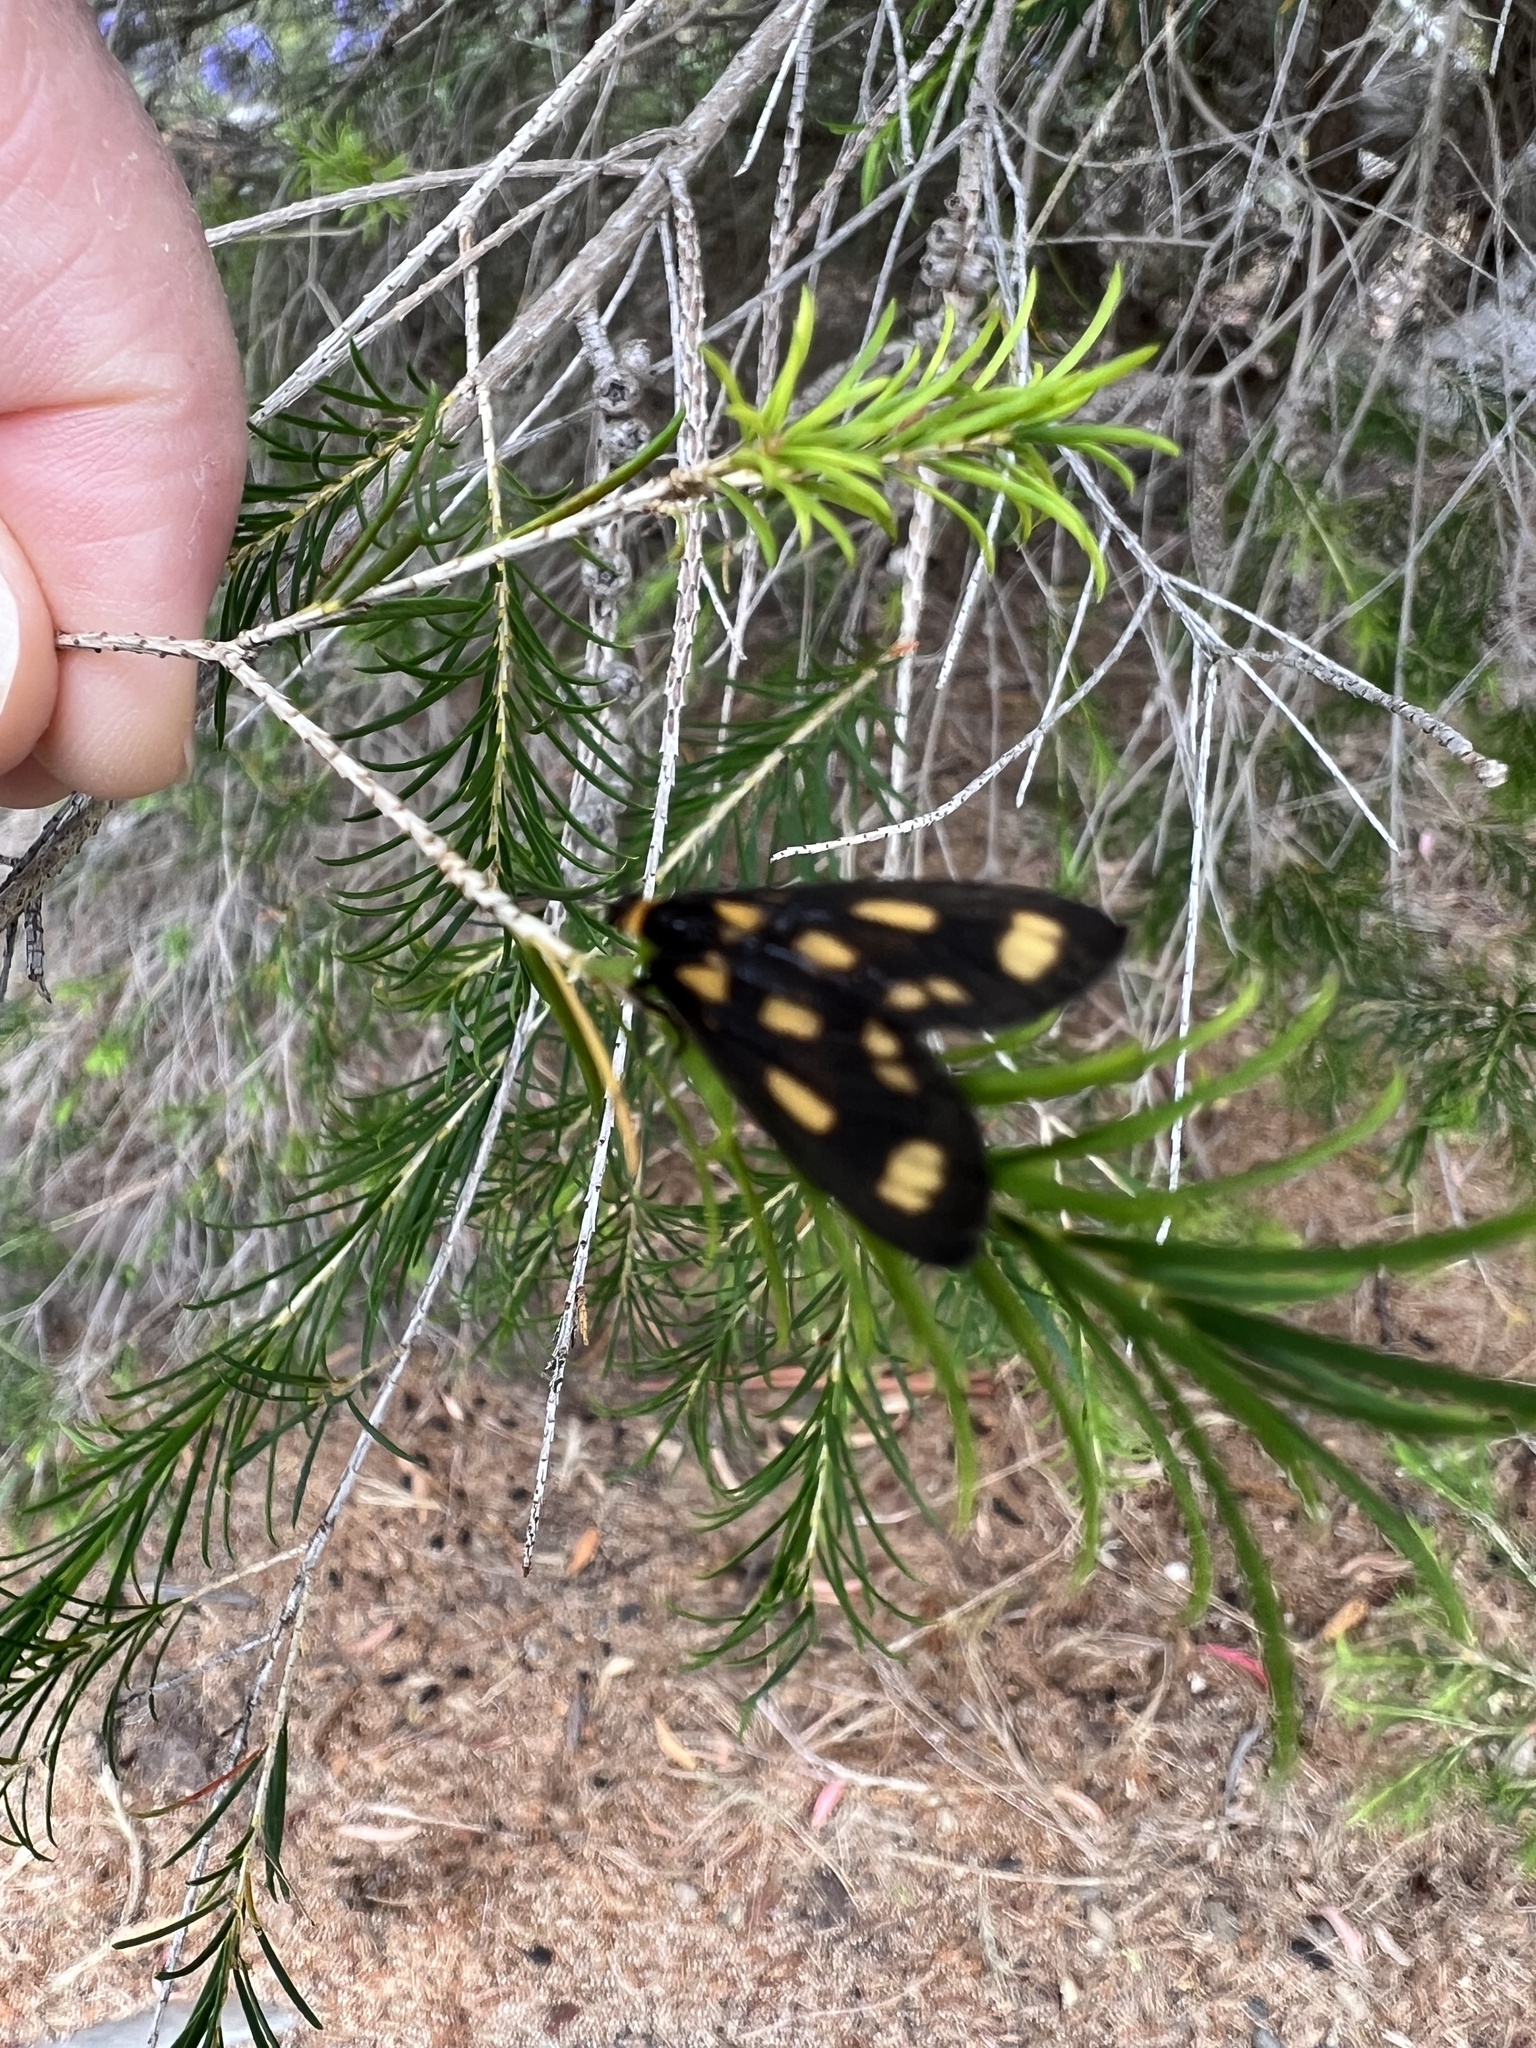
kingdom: Animalia
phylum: Arthropoda
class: Insecta
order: Lepidoptera
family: Erebidae
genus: Asura
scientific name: Asura cervicalis
